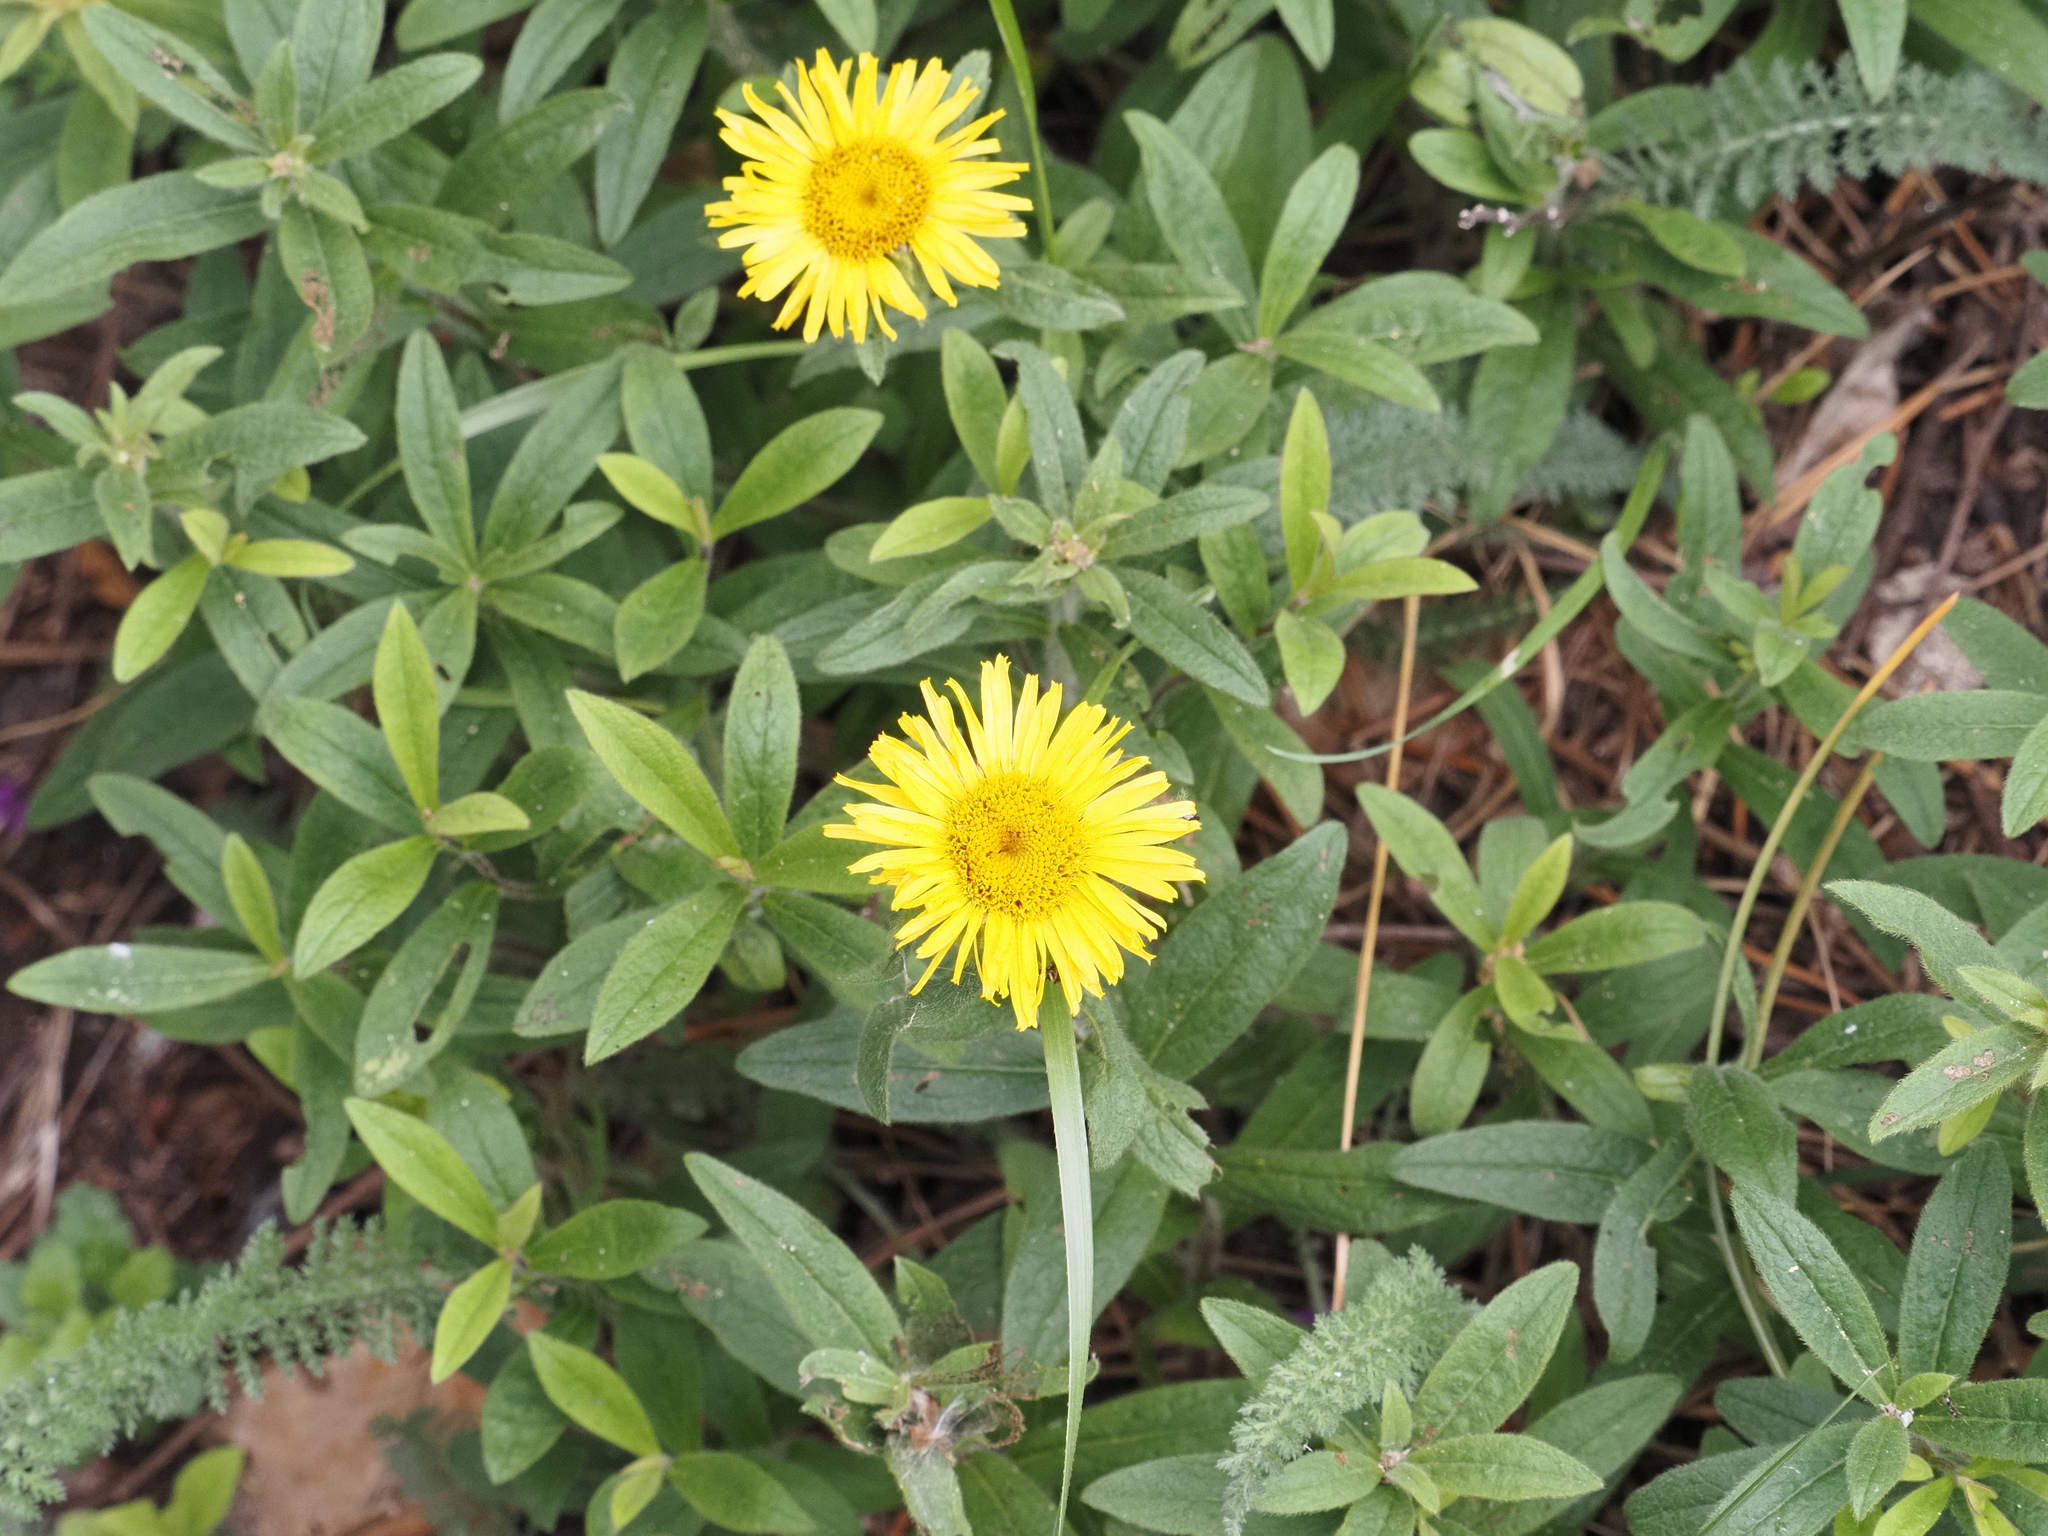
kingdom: Plantae
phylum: Tracheophyta
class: Magnoliopsida
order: Asterales
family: Asteraceae
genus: Pentanema
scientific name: Pentanema hirtum
